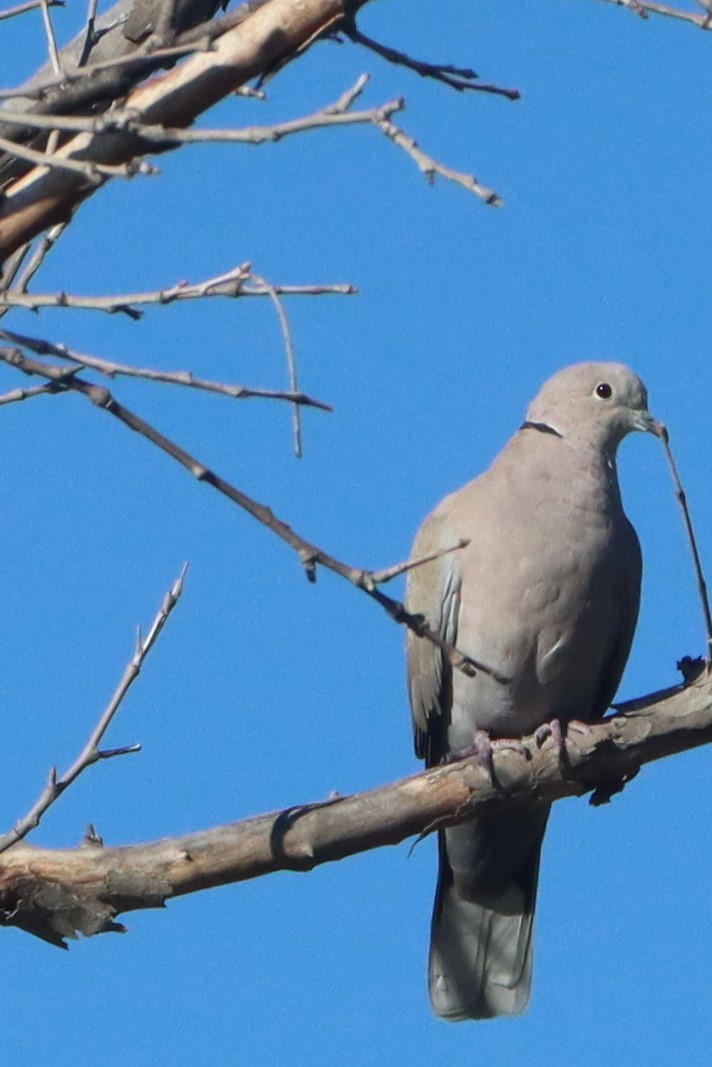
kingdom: Animalia
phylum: Chordata
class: Aves
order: Columbiformes
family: Columbidae
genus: Streptopelia
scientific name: Streptopelia decaocto
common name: Eurasian collared dove
